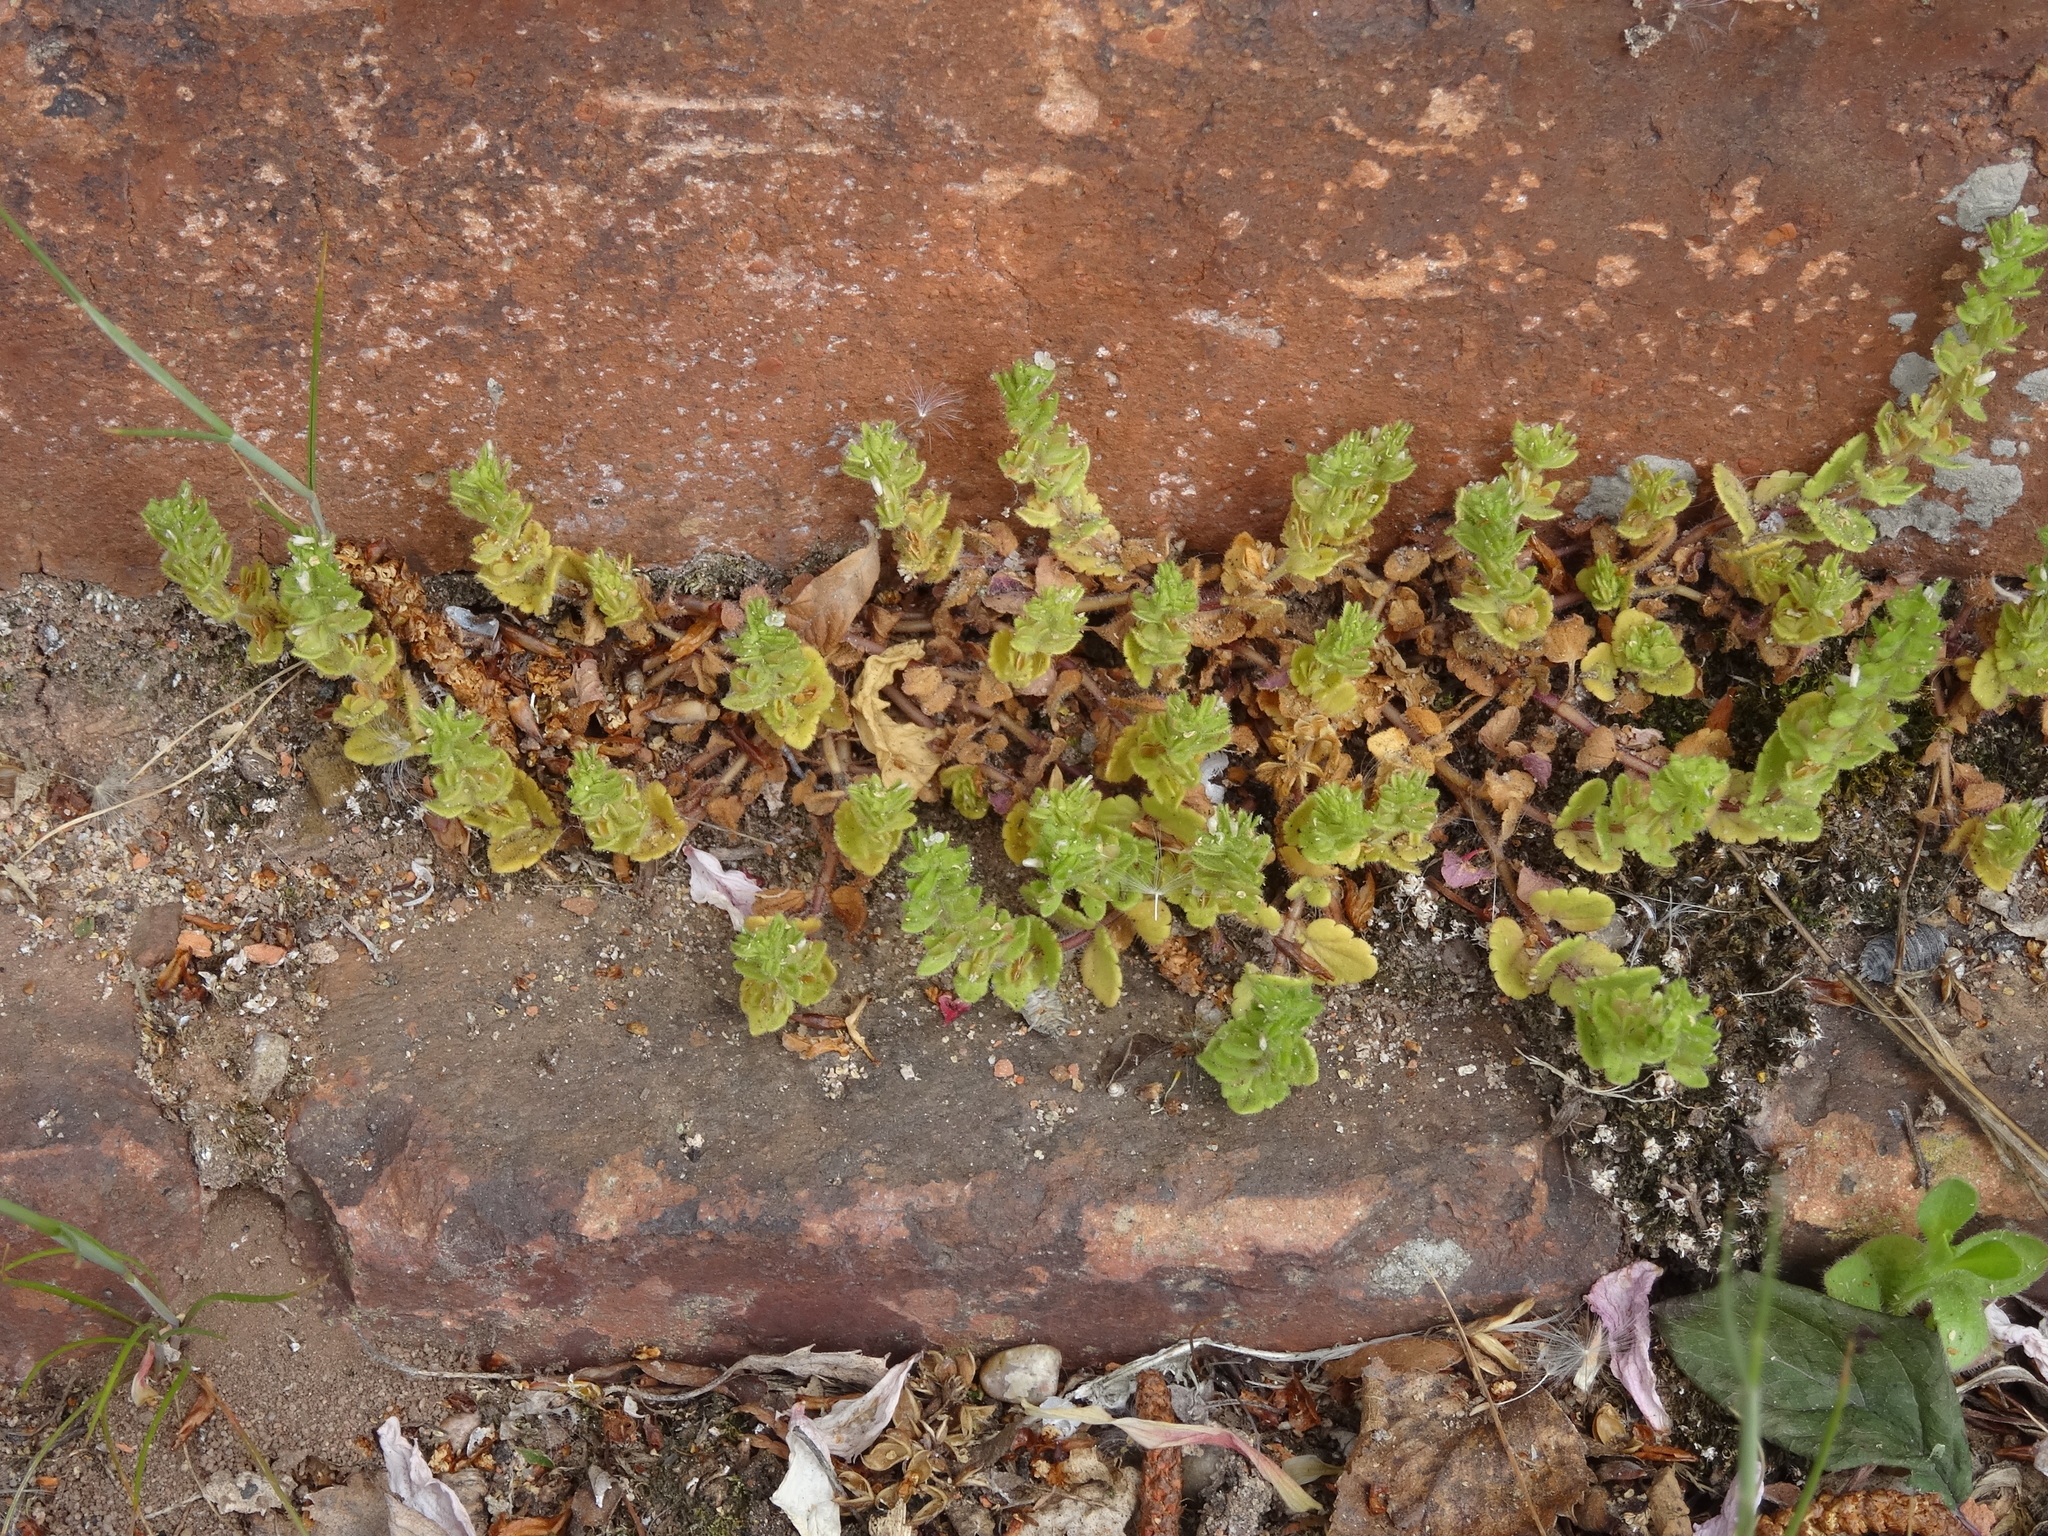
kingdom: Plantae
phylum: Tracheophyta
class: Magnoliopsida
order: Lamiales
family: Plantaginaceae
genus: Veronica
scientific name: Veronica persica
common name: Common field-speedwell
